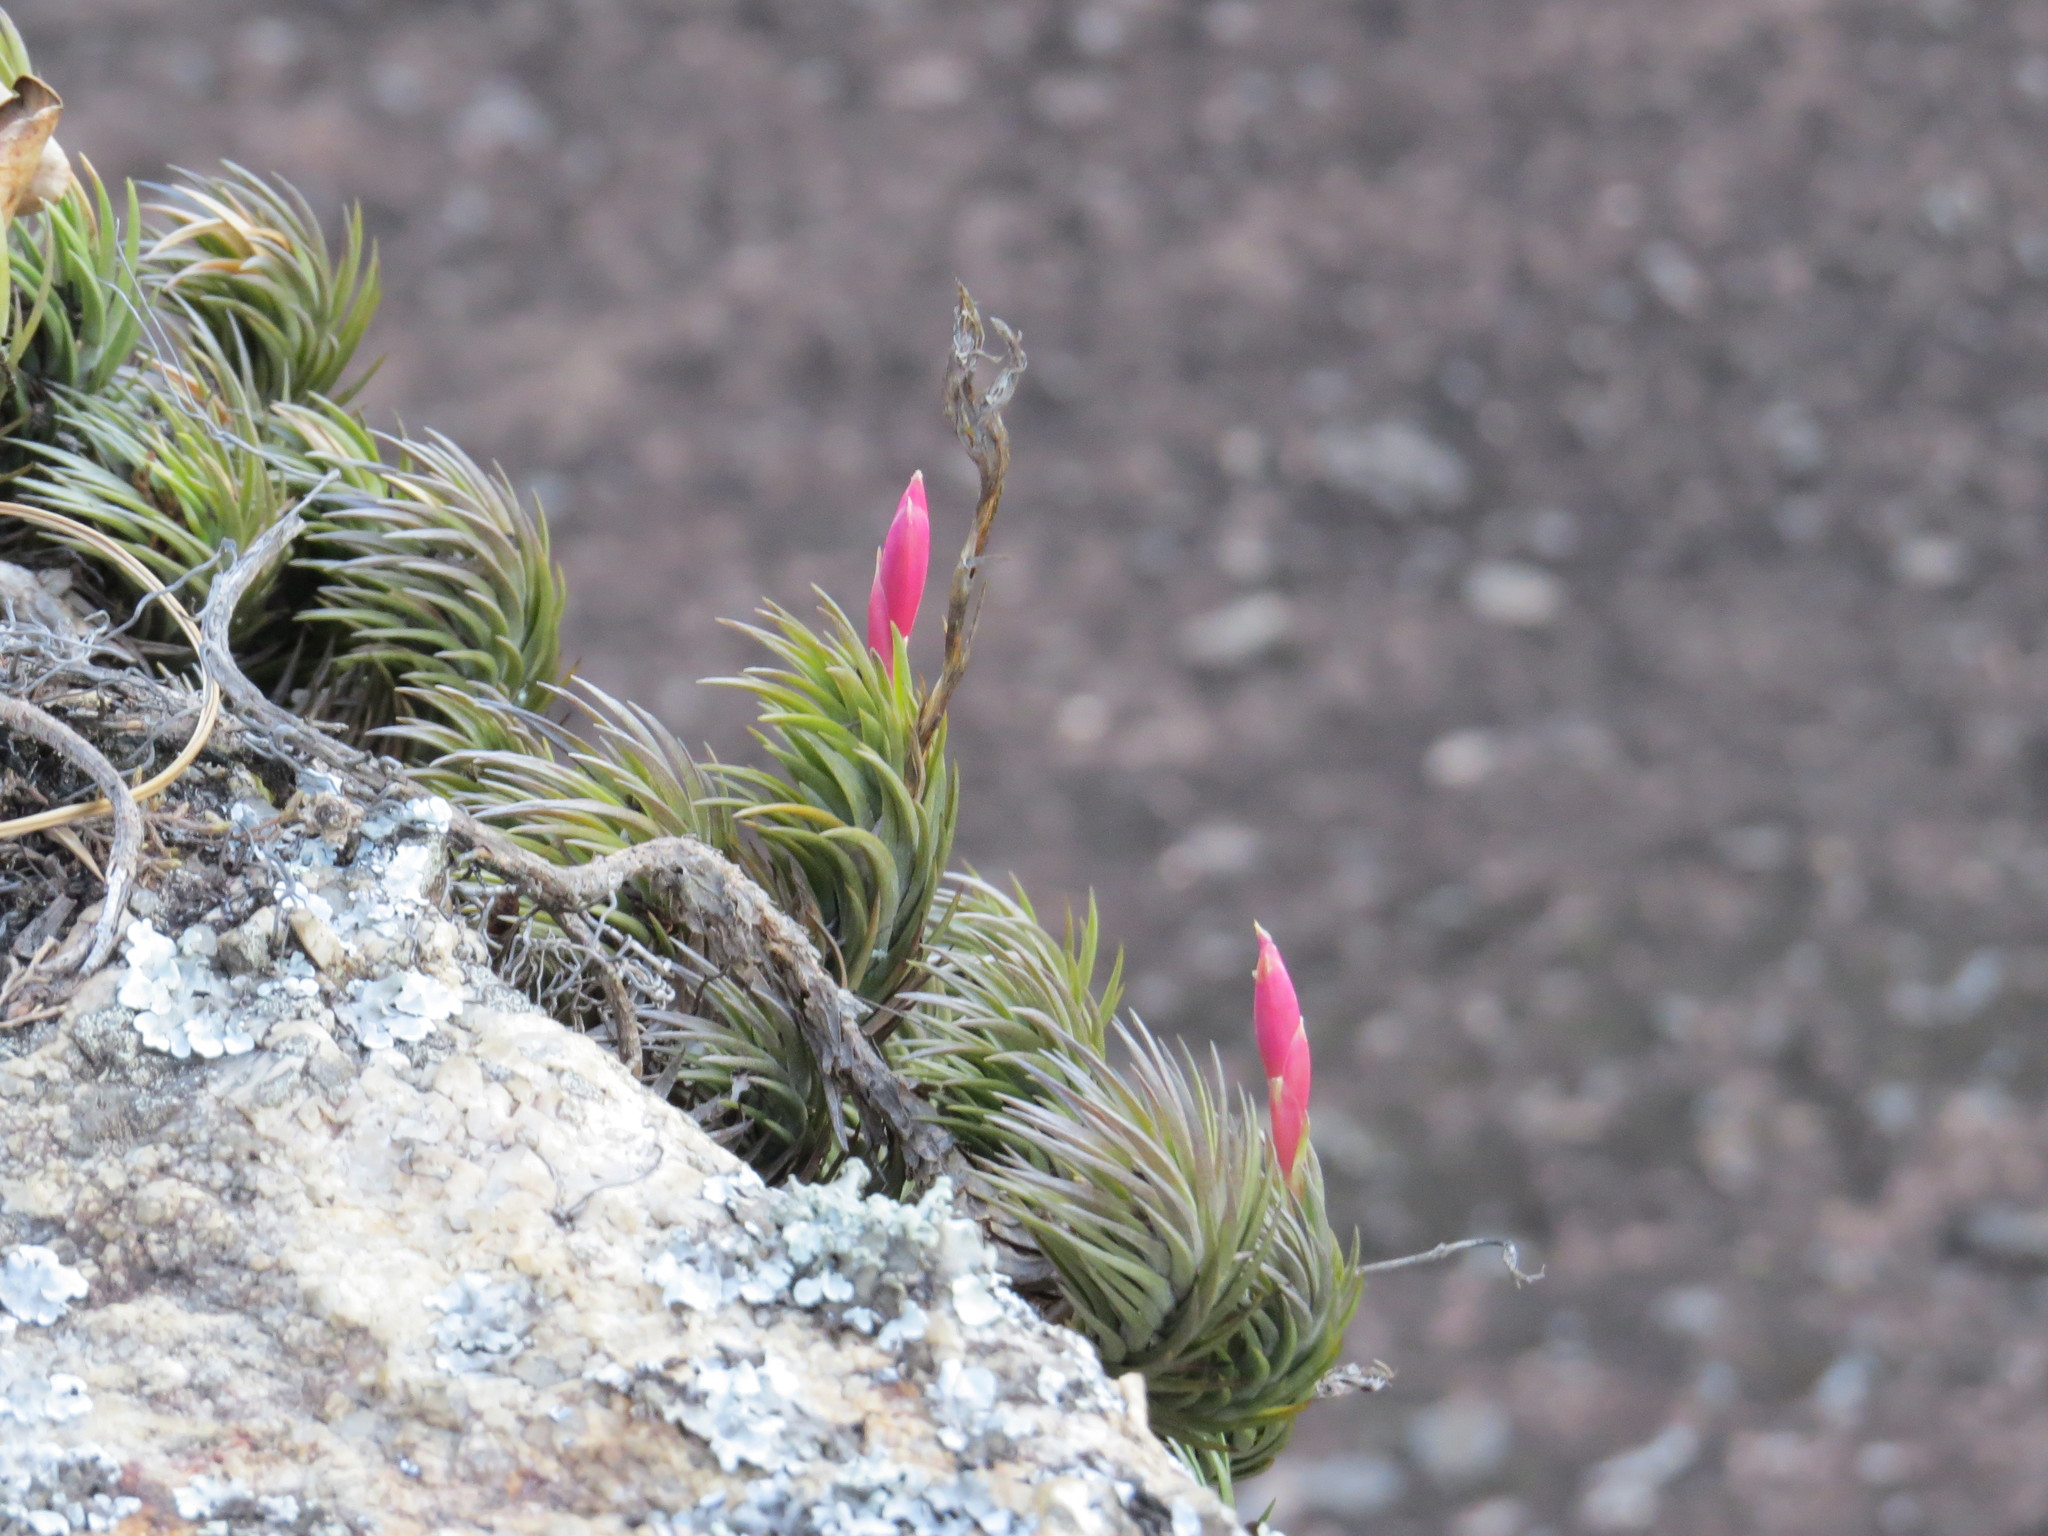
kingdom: Plantae
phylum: Tracheophyta
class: Liliopsida
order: Poales
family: Bromeliaceae
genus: Tillandsia
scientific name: Tillandsia araujei
